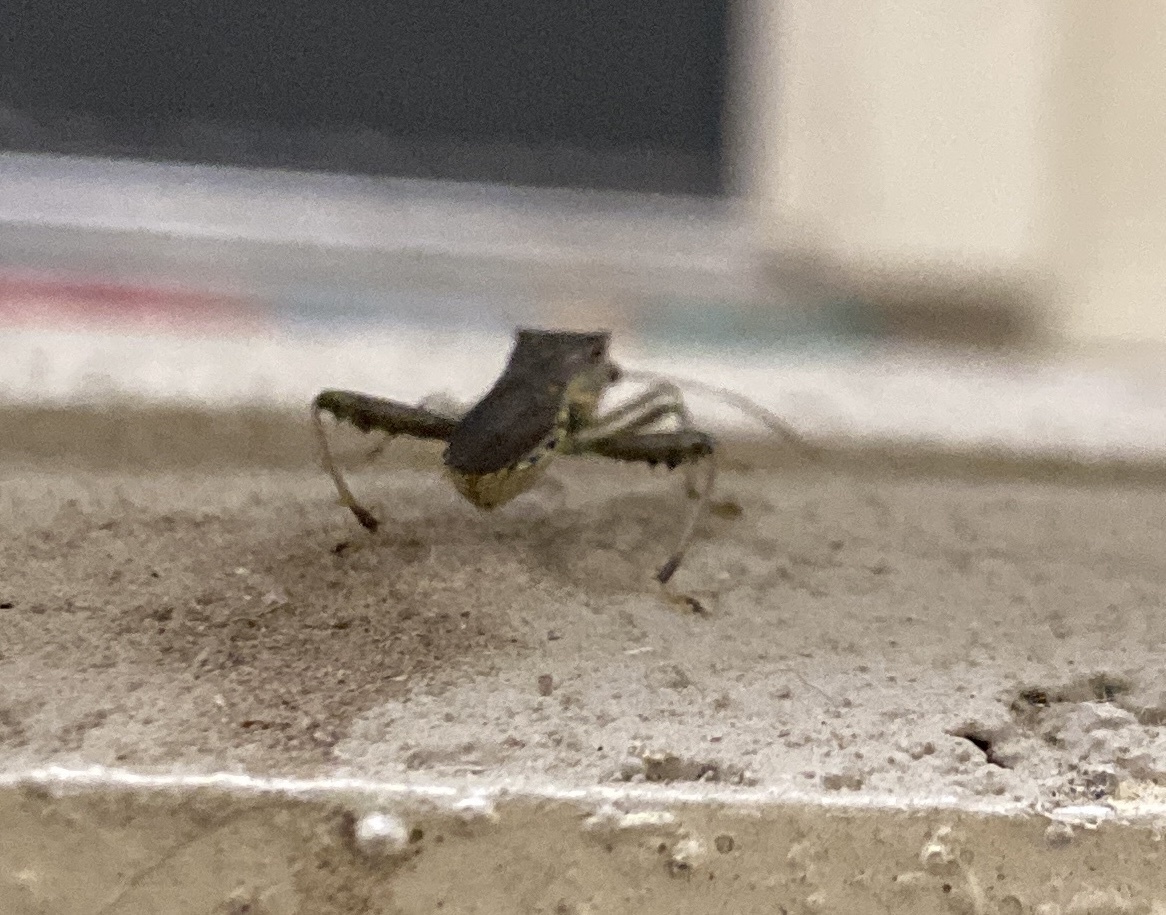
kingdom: Animalia
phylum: Arthropoda
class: Insecta
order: Hemiptera
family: Alydidae
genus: Hyalymenus
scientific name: Hyalymenus tarsatus
